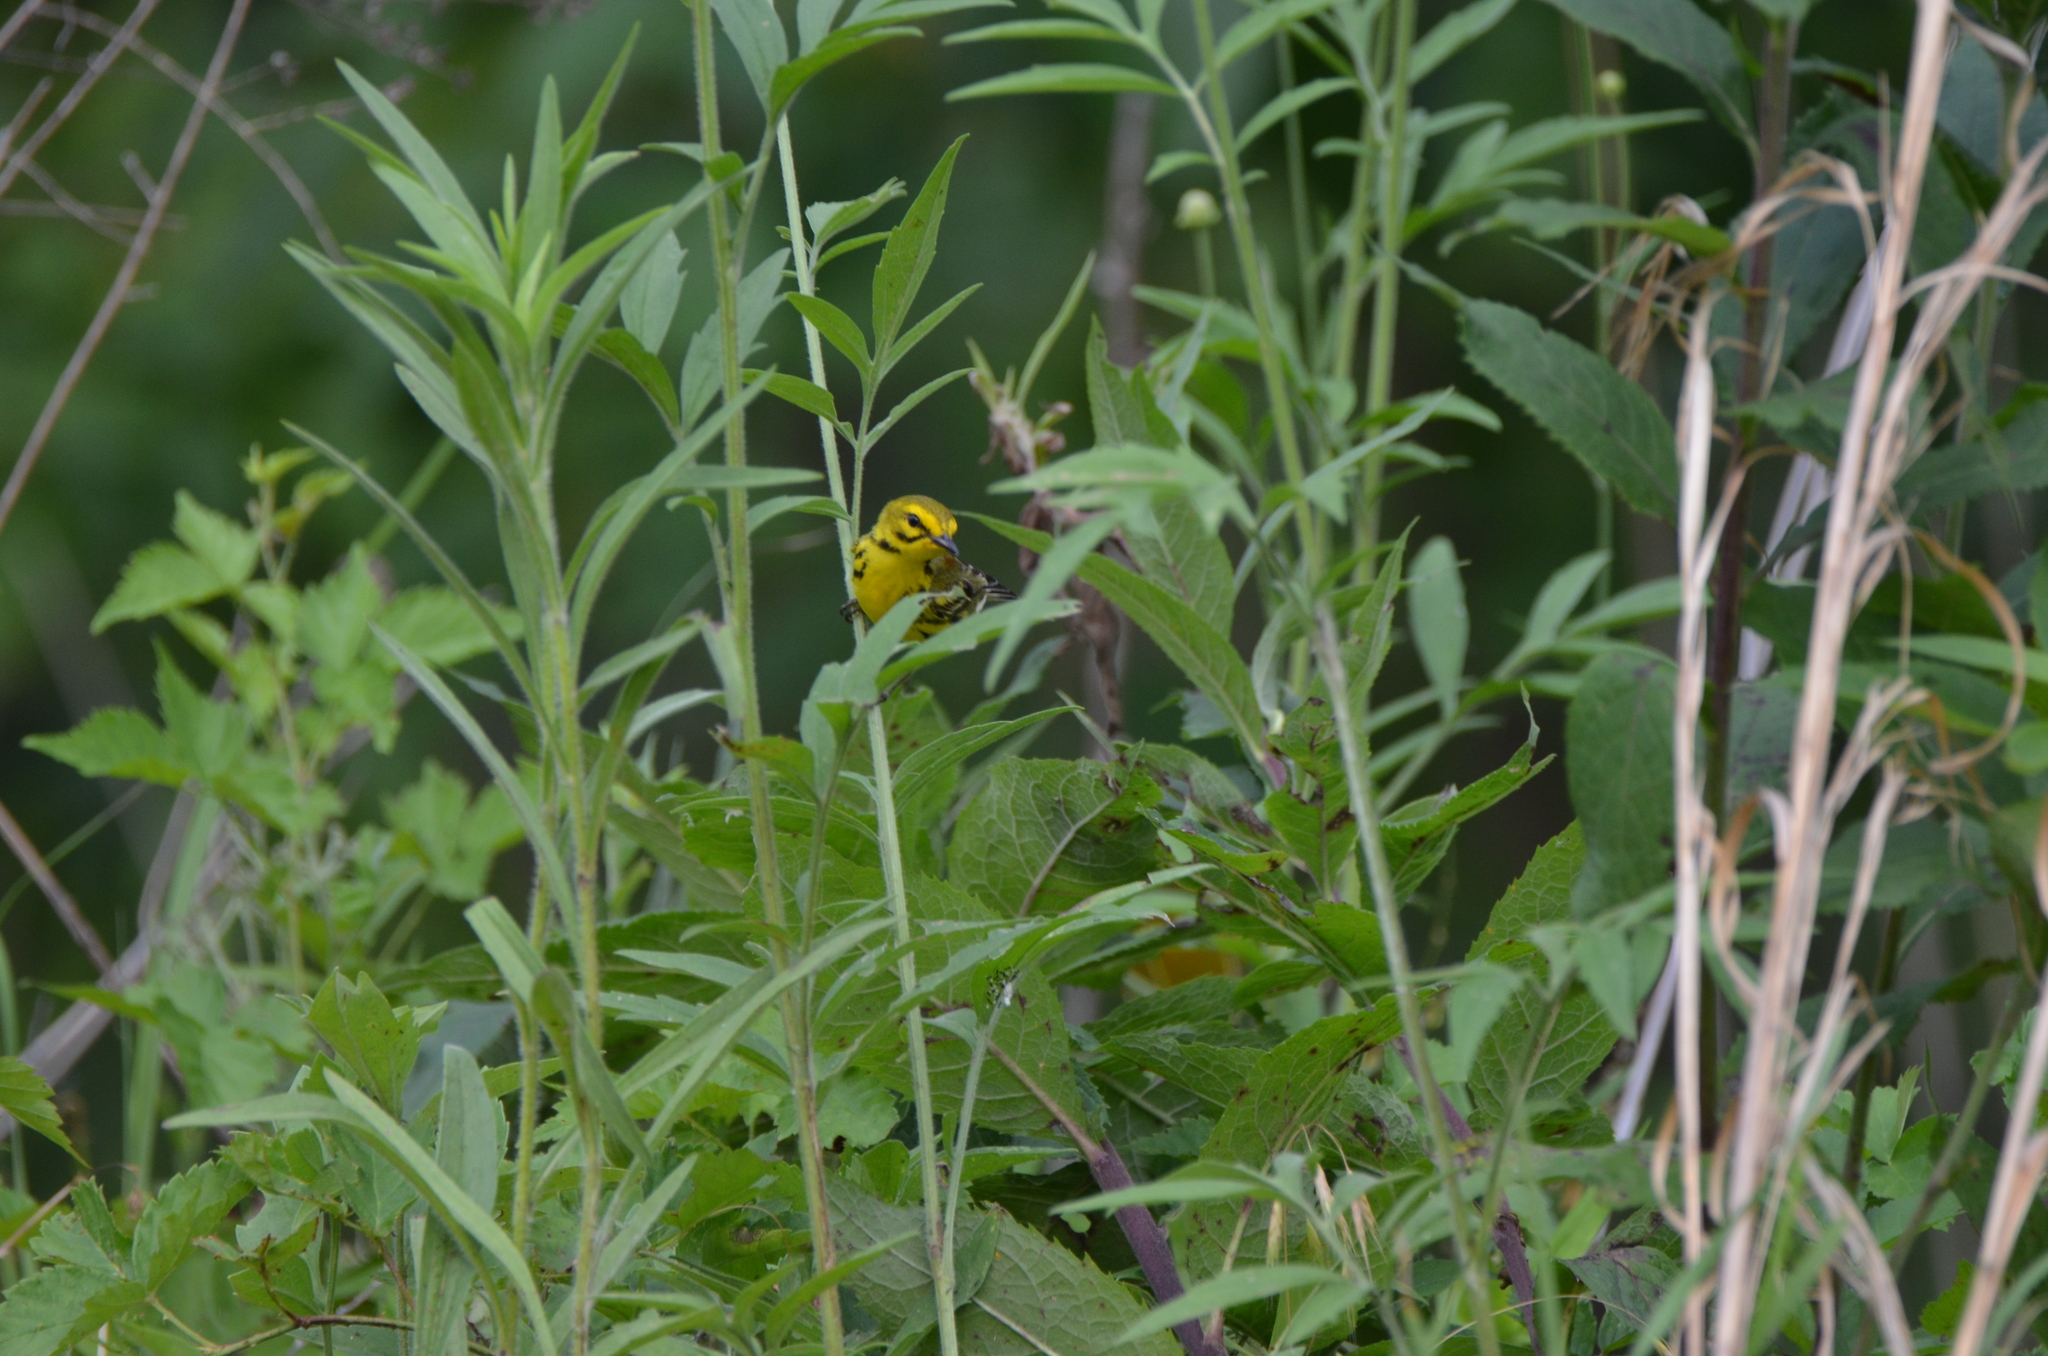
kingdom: Animalia
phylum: Chordata
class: Aves
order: Passeriformes
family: Parulidae
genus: Setophaga
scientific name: Setophaga discolor
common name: Prairie warbler
